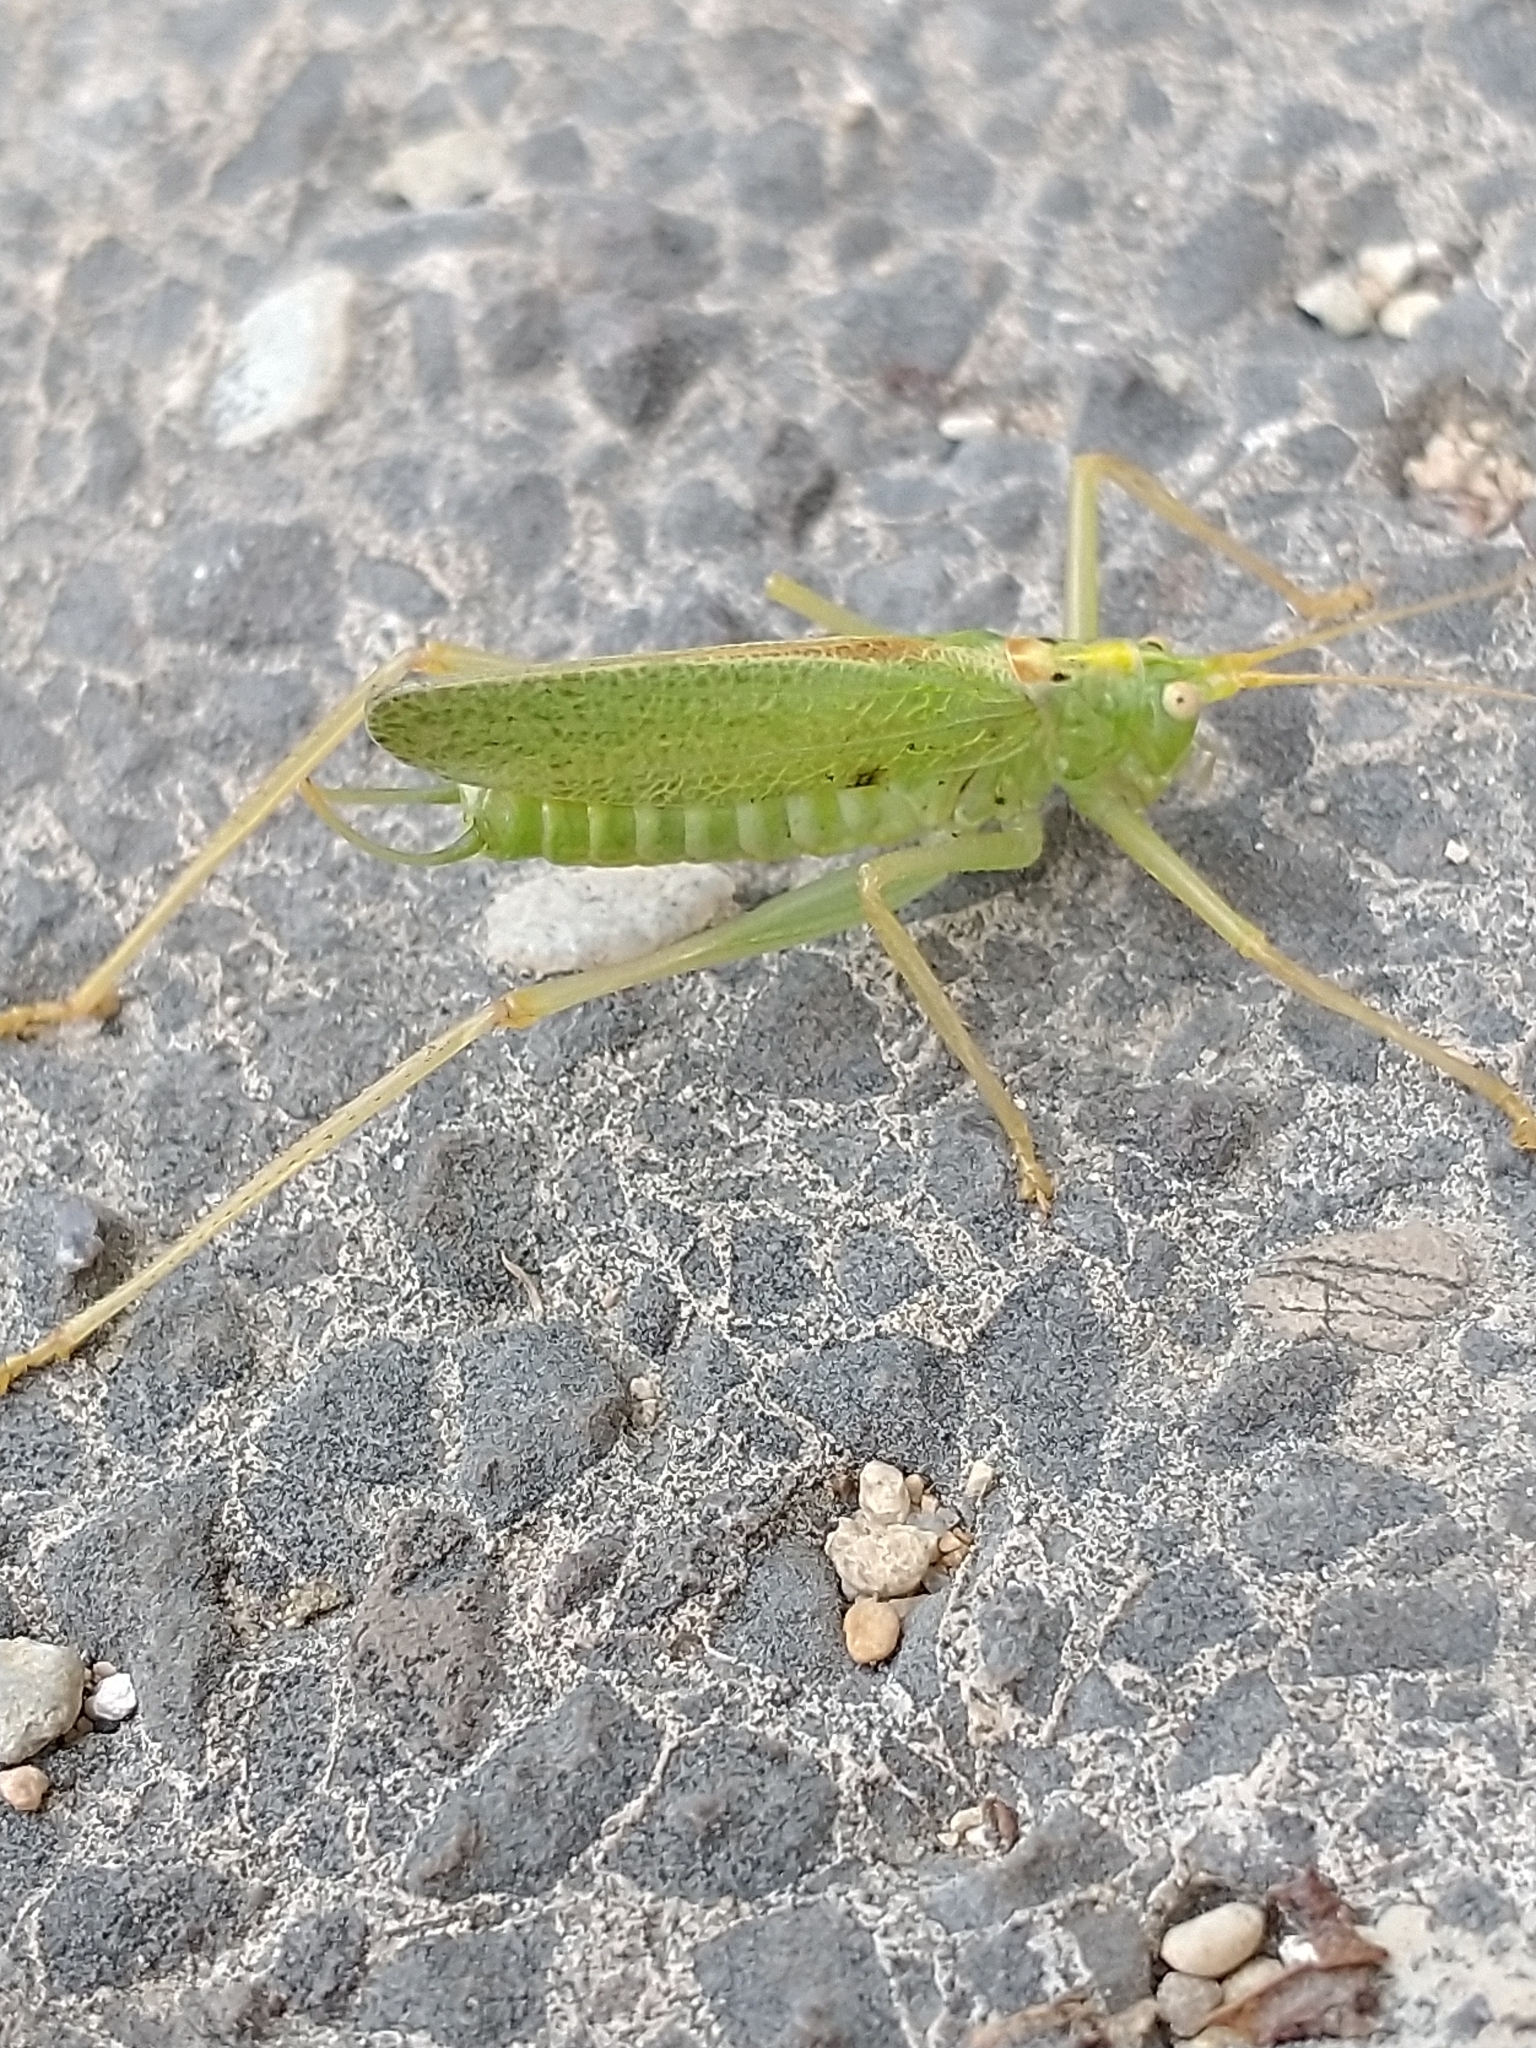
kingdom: Animalia
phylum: Arthropoda
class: Insecta
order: Orthoptera
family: Tettigoniidae
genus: Meconema
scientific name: Meconema thalassinum
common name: Oak bush-cricket
